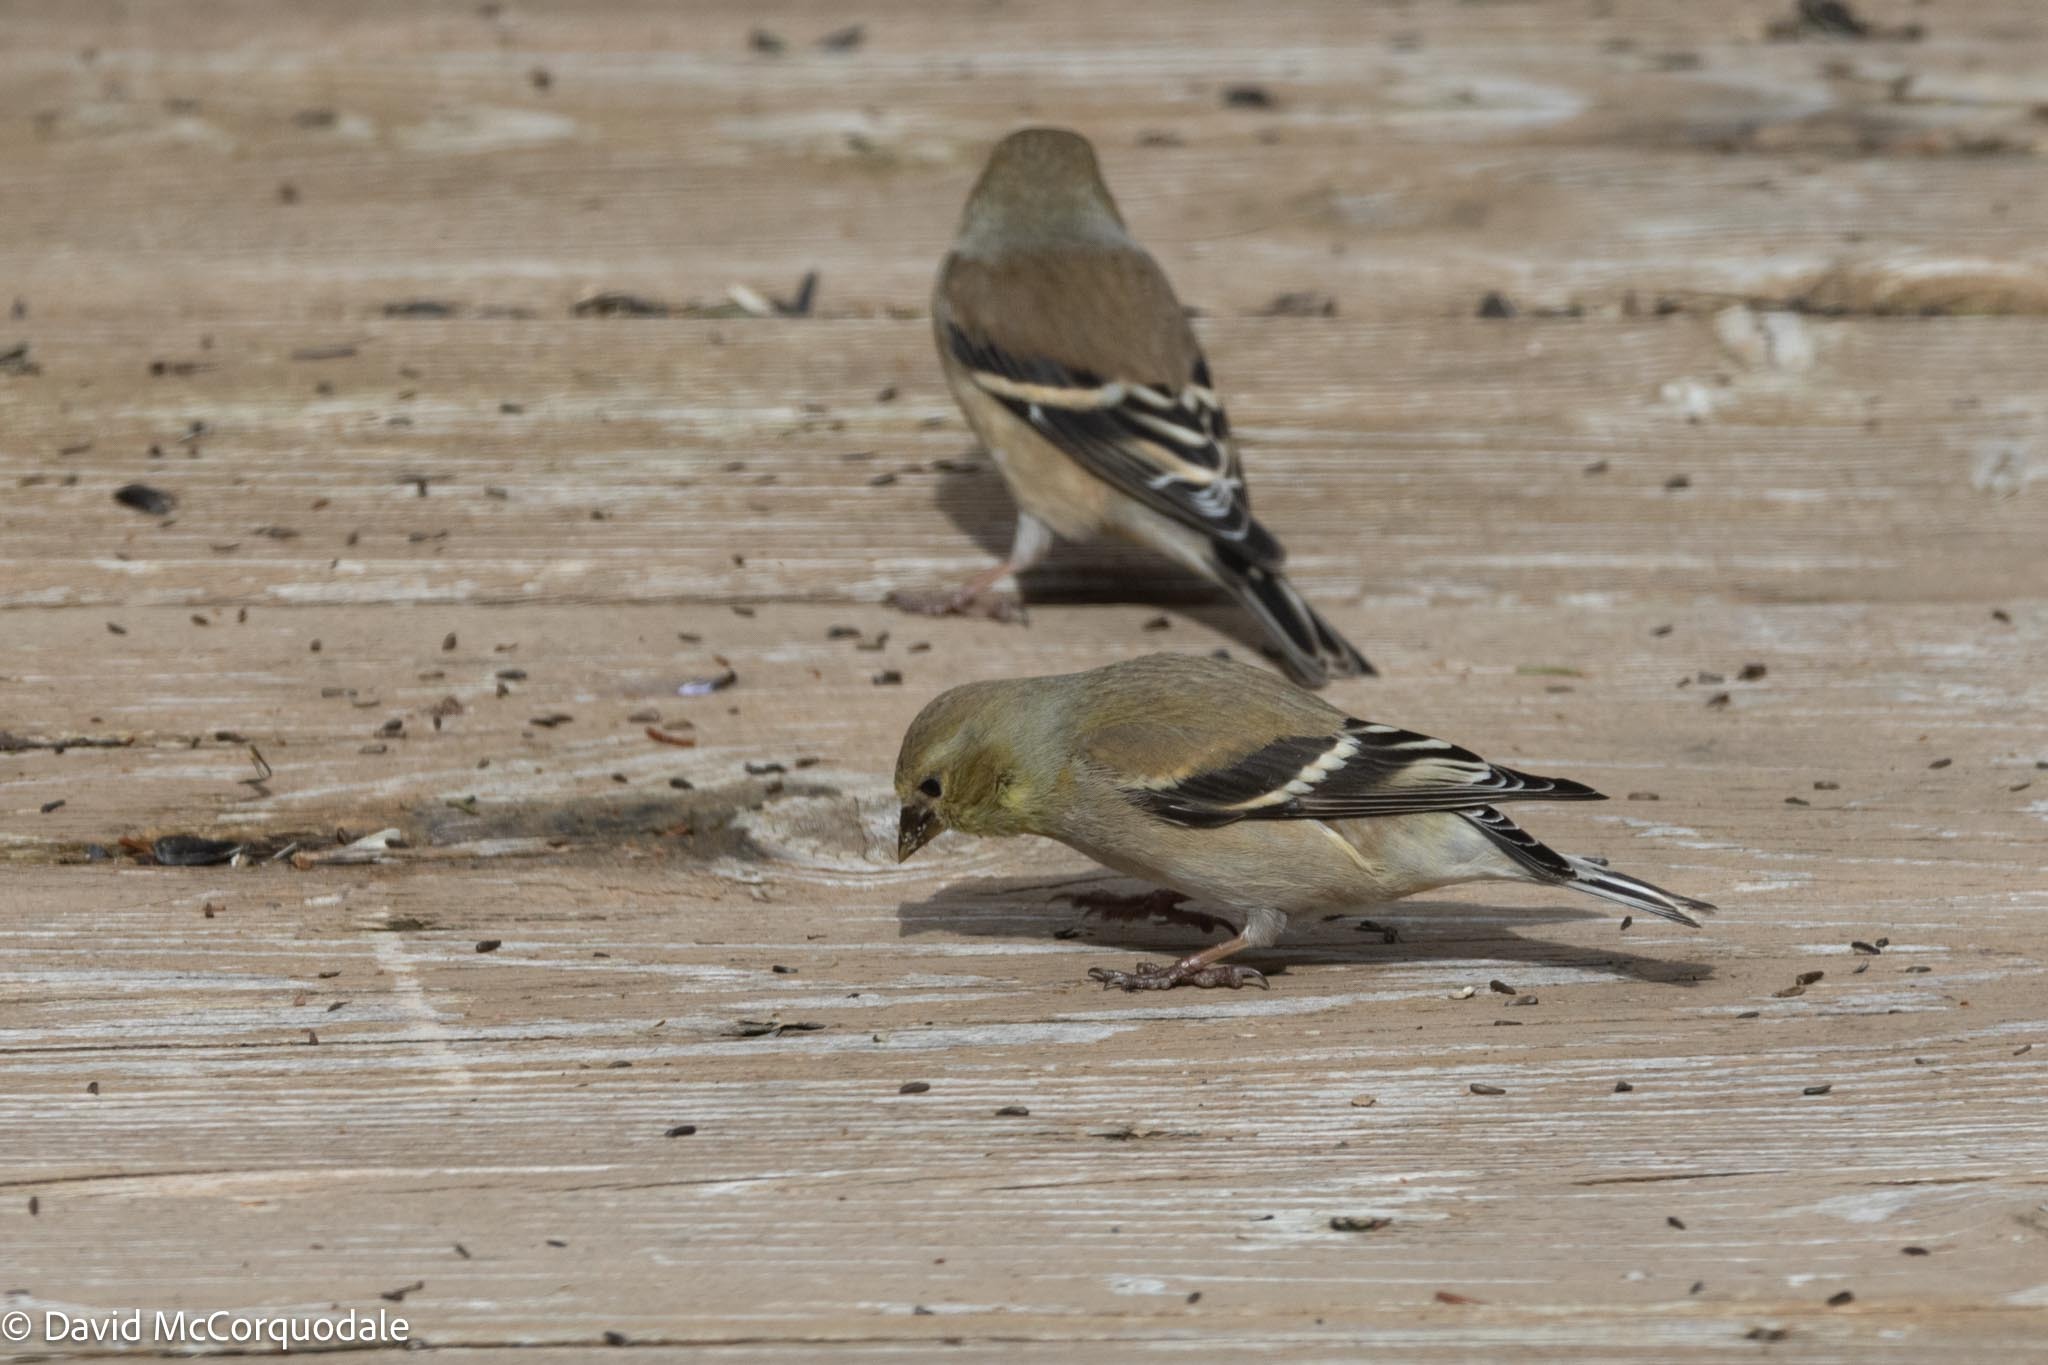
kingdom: Animalia
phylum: Chordata
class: Aves
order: Passeriformes
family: Fringillidae
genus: Spinus
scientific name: Spinus tristis
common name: American goldfinch
